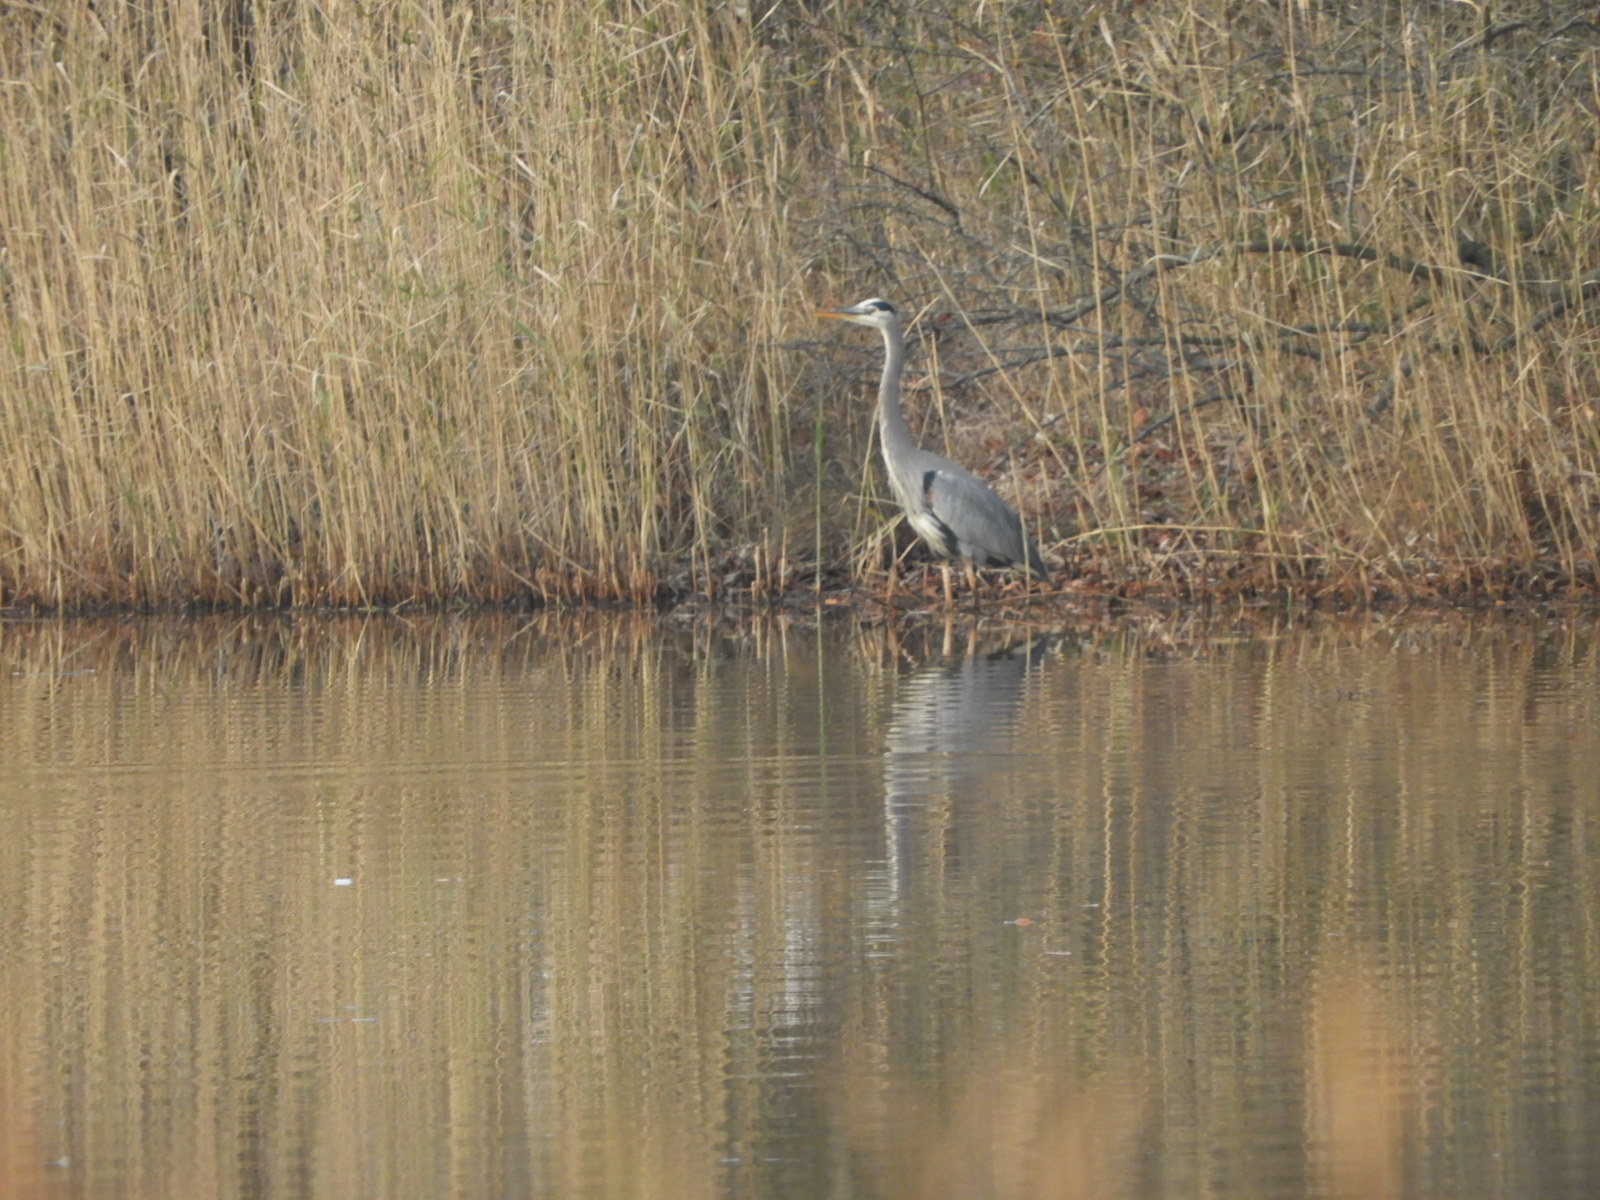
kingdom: Animalia
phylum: Chordata
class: Aves
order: Pelecaniformes
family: Ardeidae
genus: Ardea
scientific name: Ardea herodias
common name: Great blue heron
